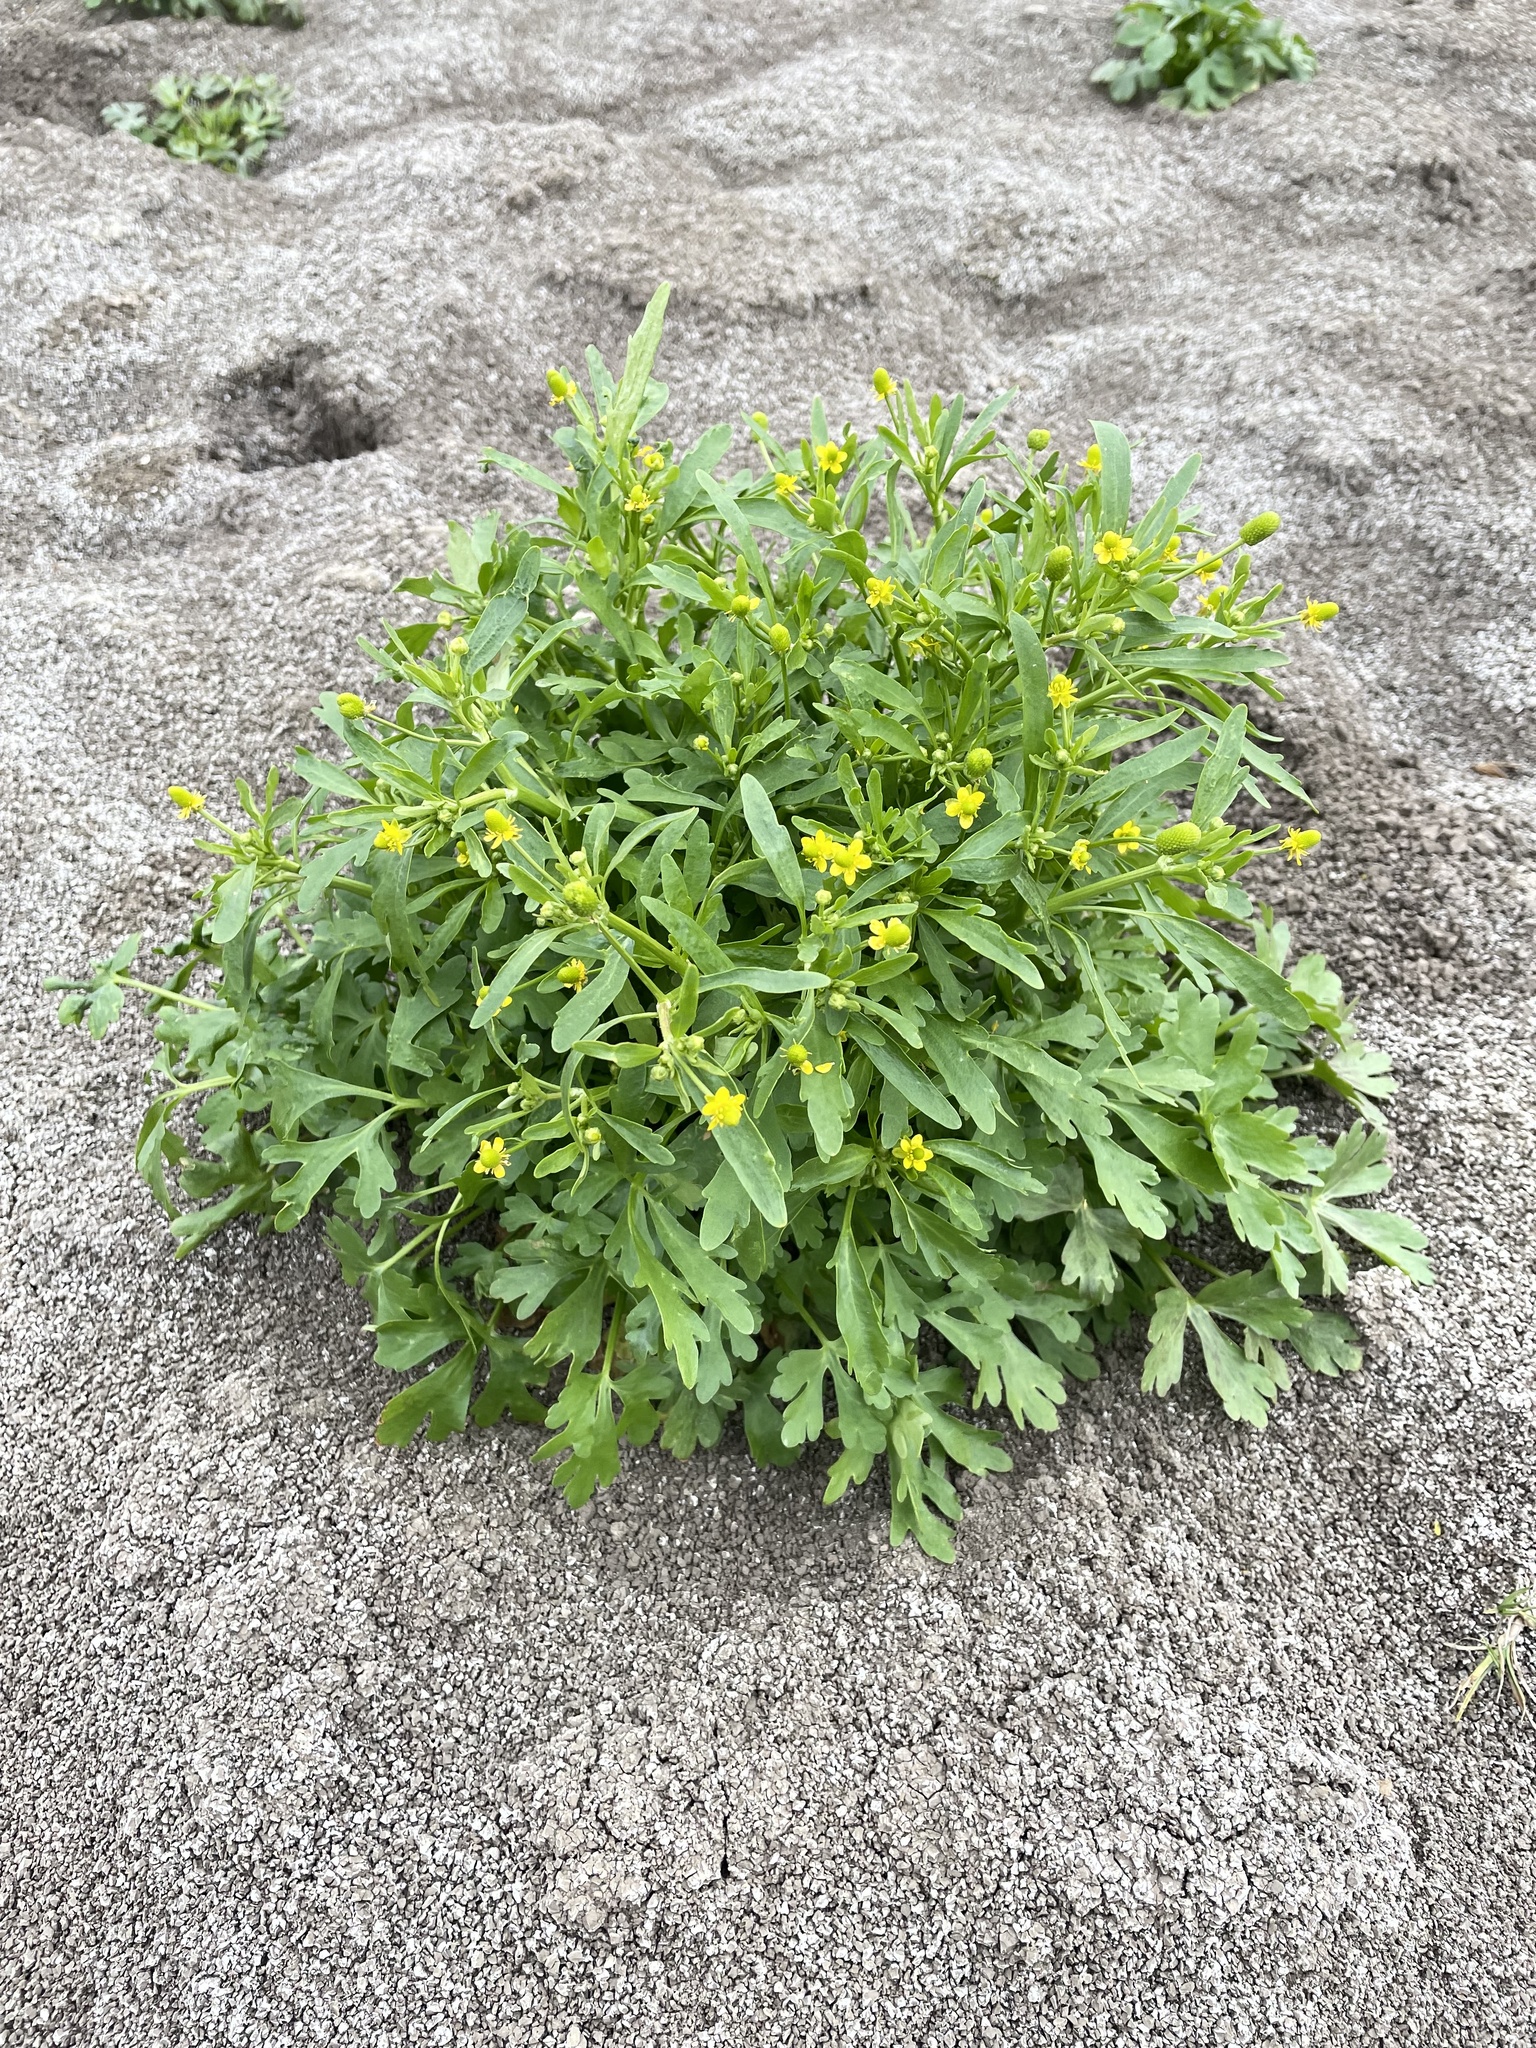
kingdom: Plantae
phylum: Tracheophyta
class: Magnoliopsida
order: Ranunculales
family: Ranunculaceae
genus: Ranunculus
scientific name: Ranunculus sceleratus
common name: Celery-leaved buttercup
